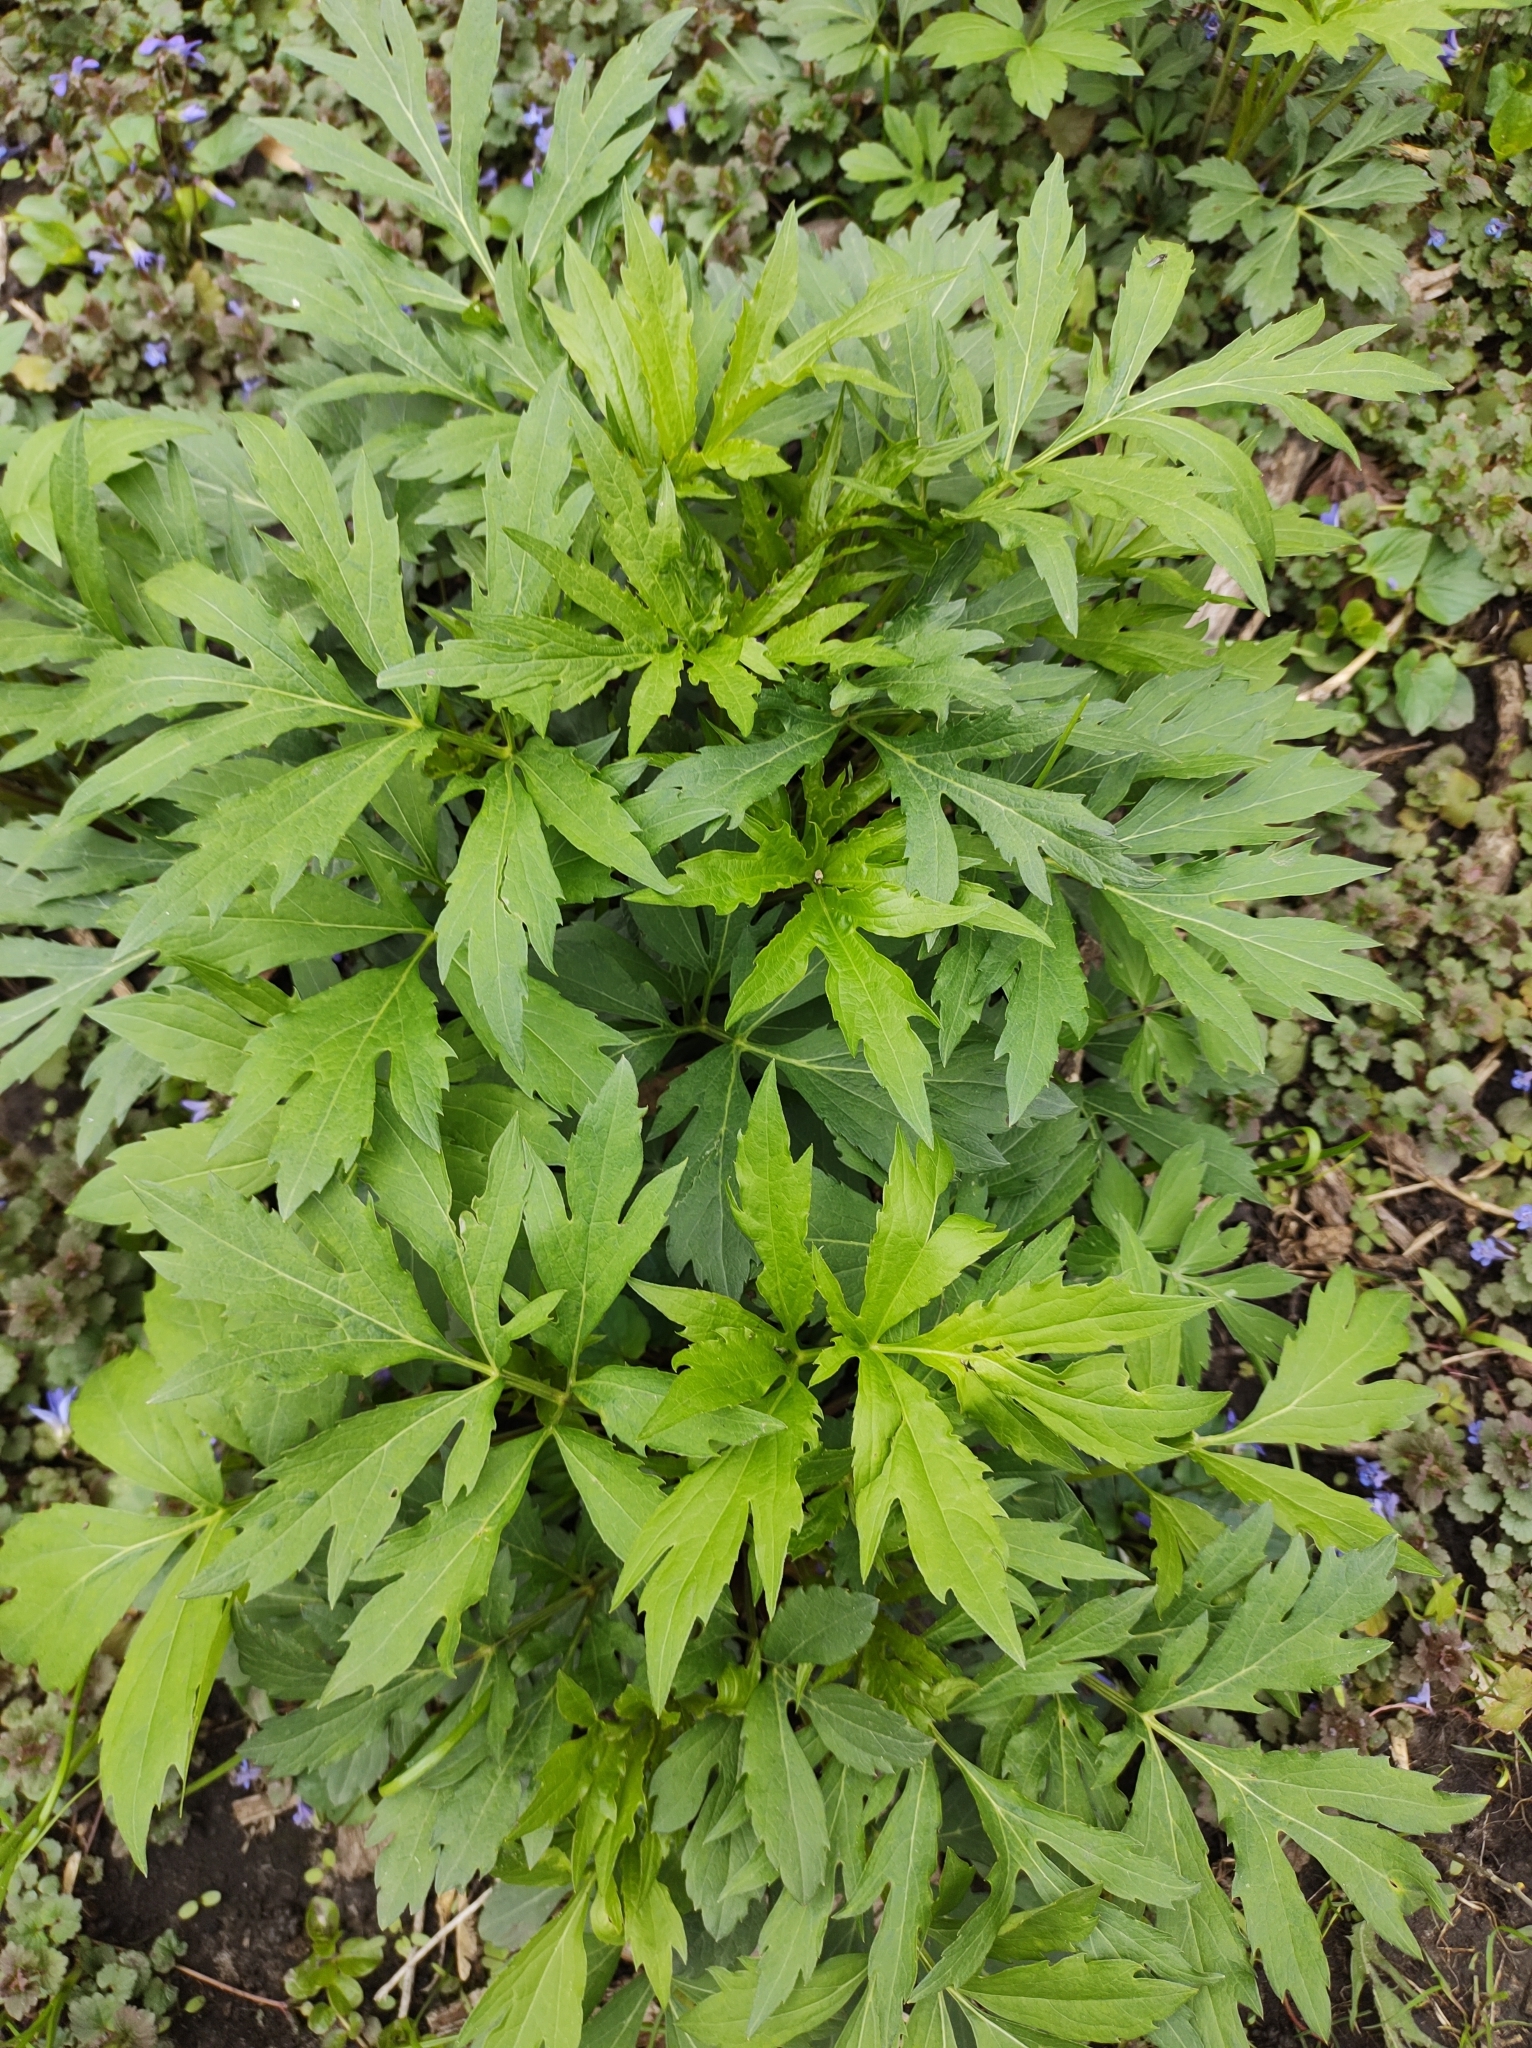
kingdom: Plantae
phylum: Tracheophyta
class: Magnoliopsida
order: Asterales
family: Asteraceae
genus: Rudbeckia
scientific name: Rudbeckia laciniata
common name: Coneflower
